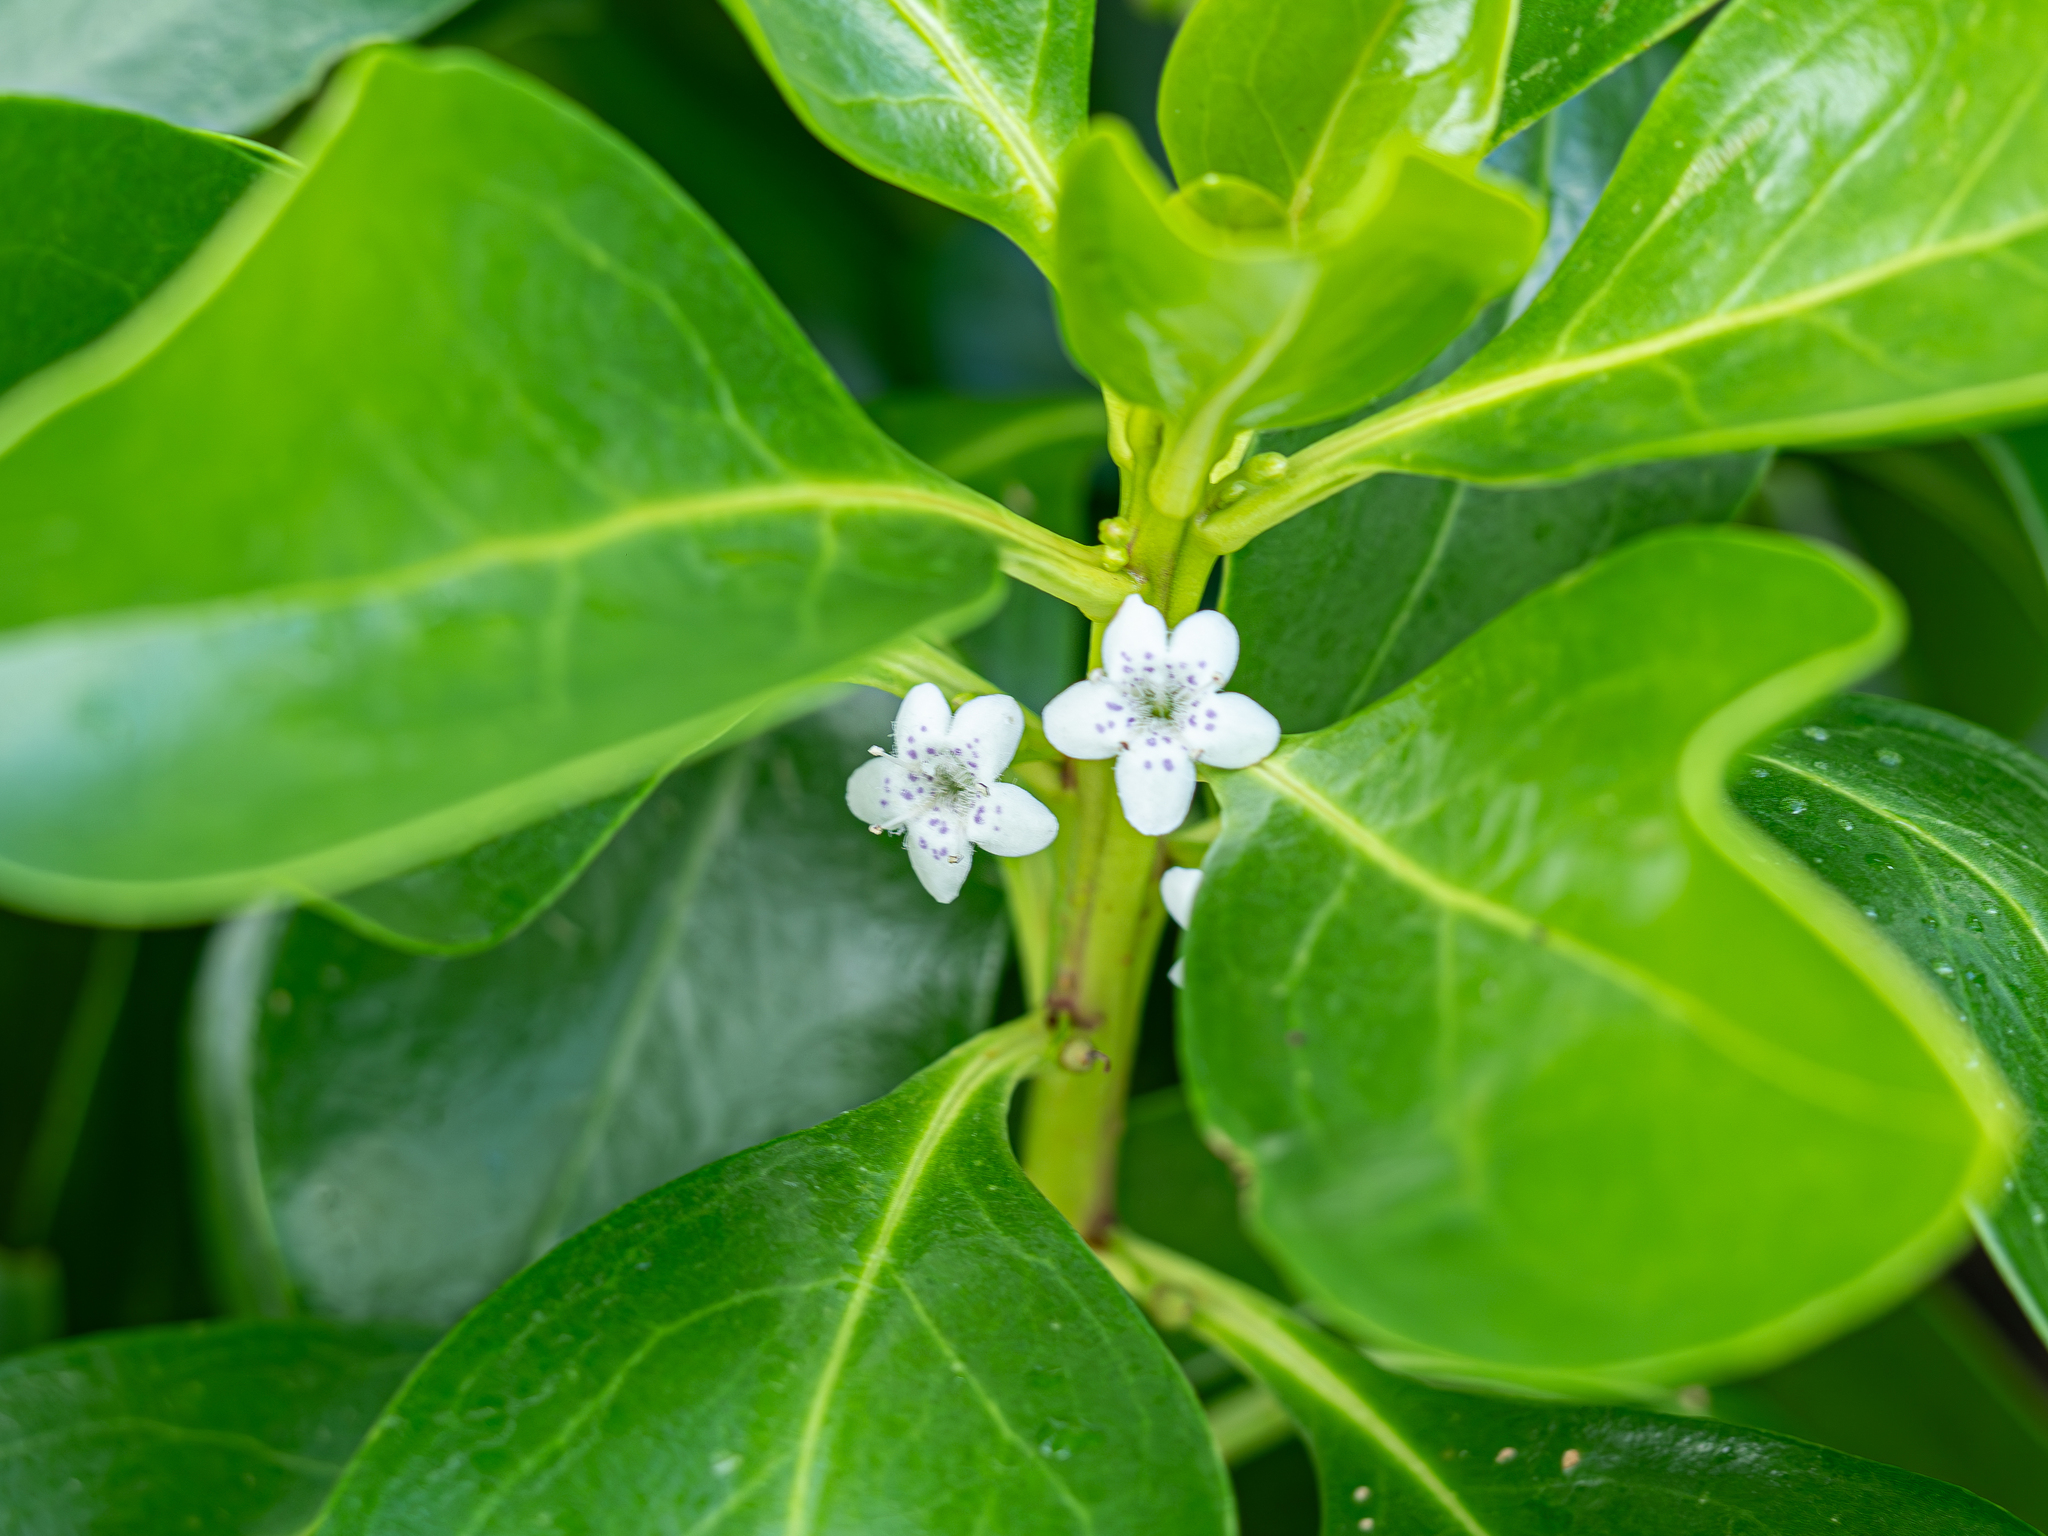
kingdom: Plantae
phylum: Tracheophyta
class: Magnoliopsida
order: Lamiales
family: Scrophulariaceae
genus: Myoporum
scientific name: Myoporum crassifolium
